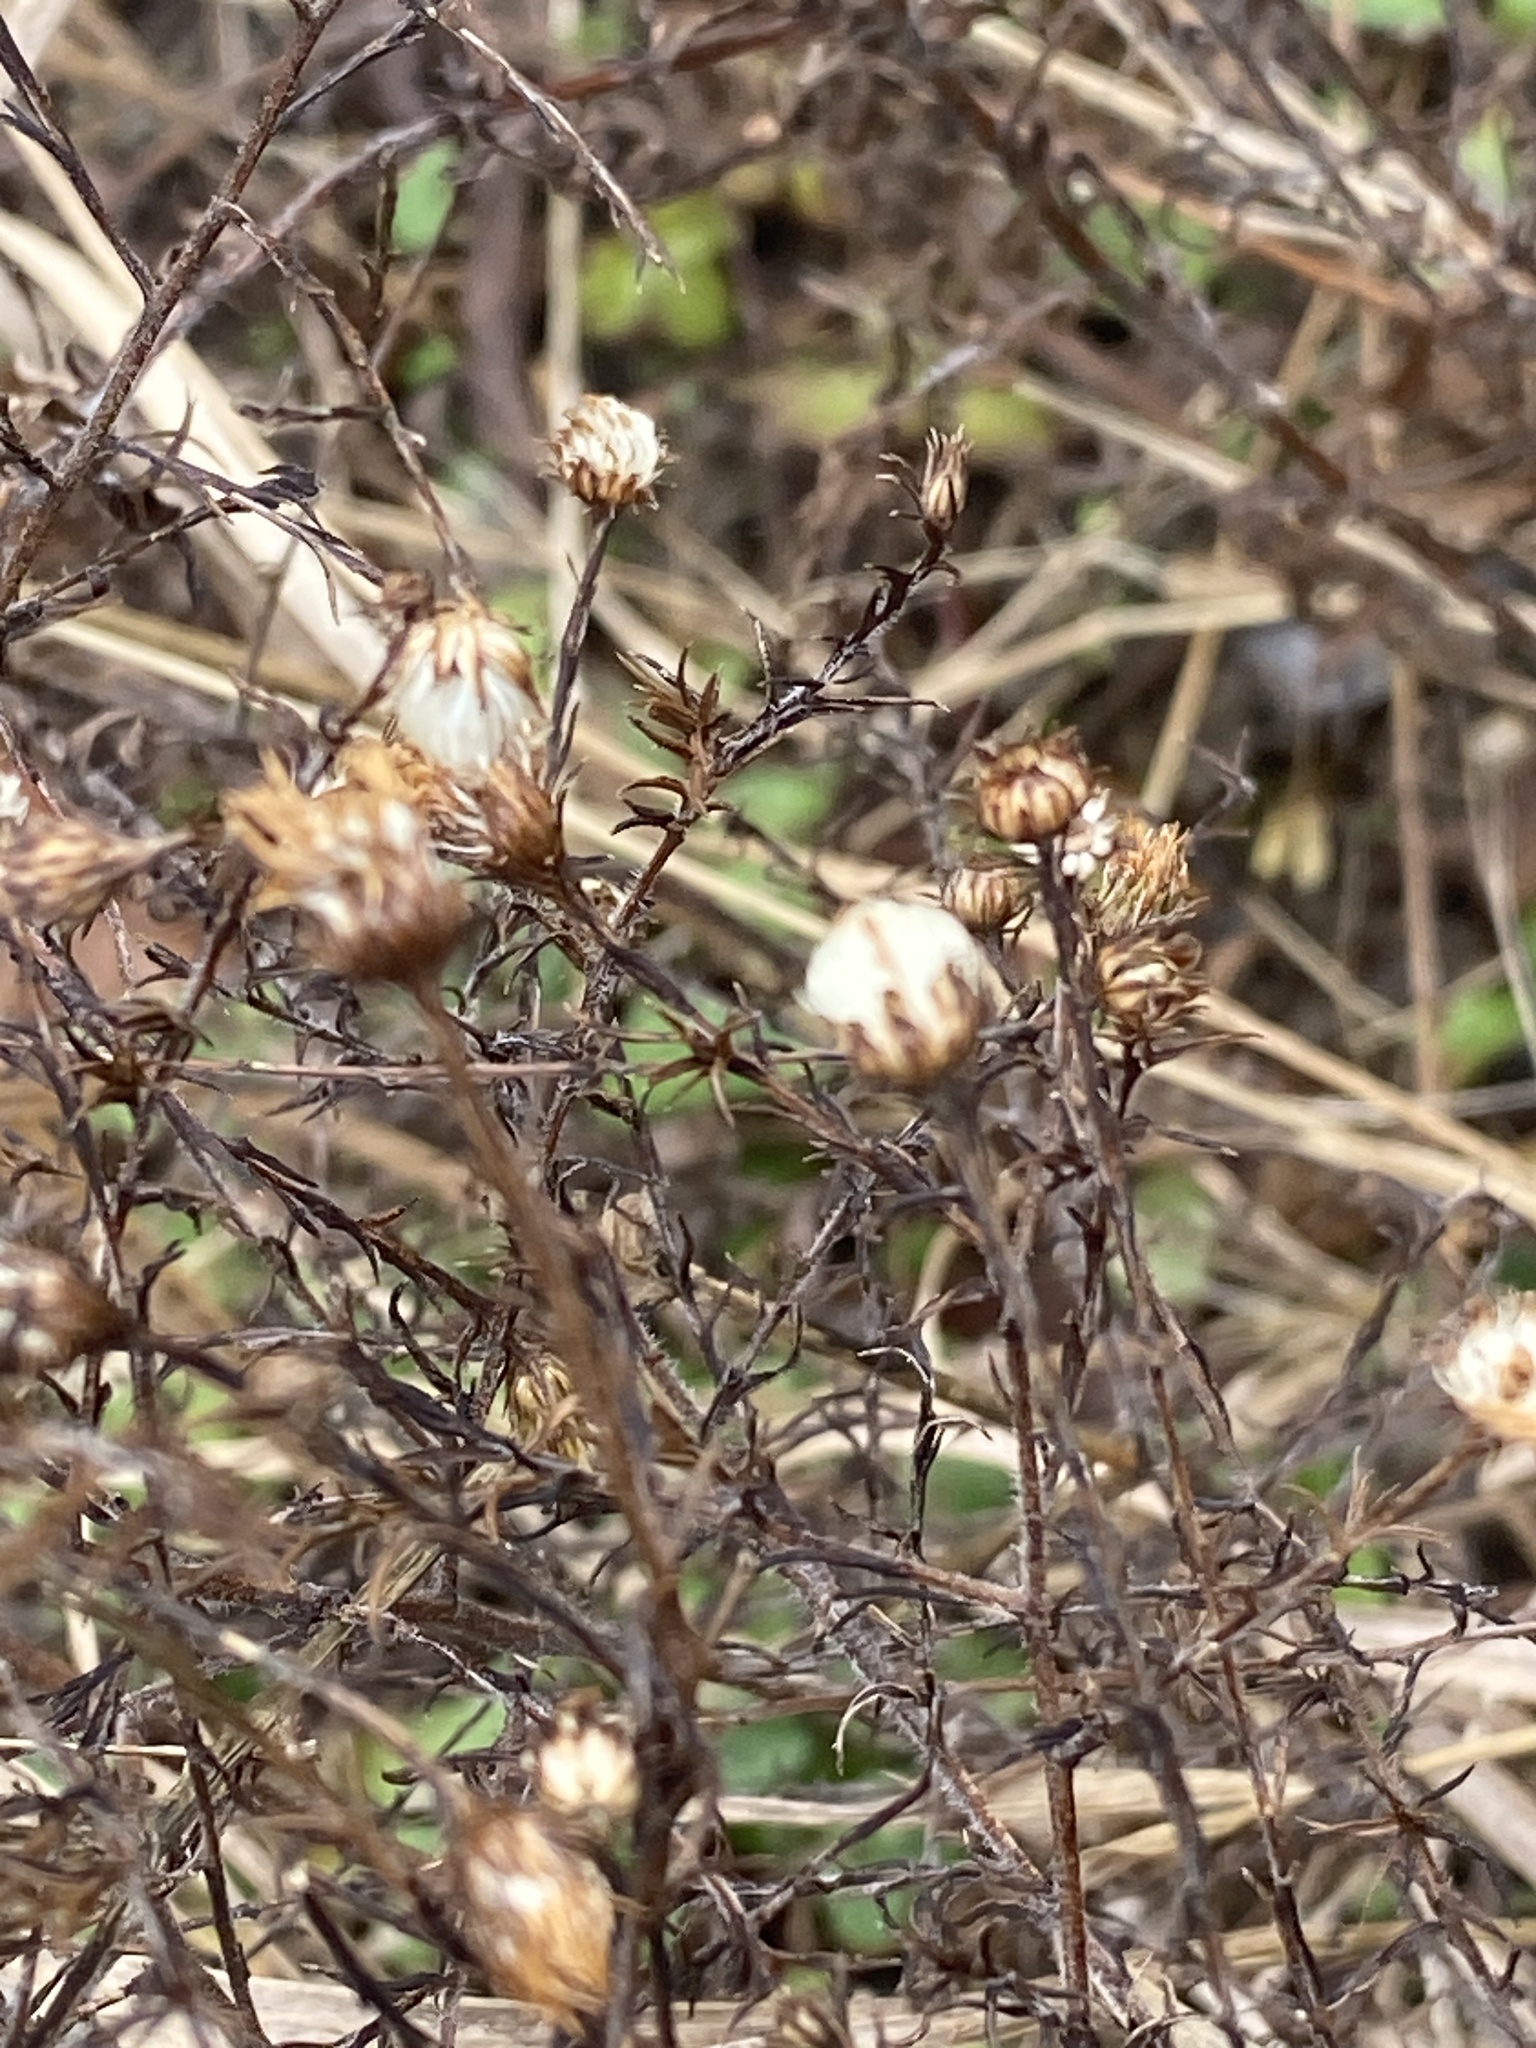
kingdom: Plantae
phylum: Tracheophyta
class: Magnoliopsida
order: Asterales
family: Asteraceae
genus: Symphyotrichum
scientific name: Symphyotrichum pilosum
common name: Awl aster
